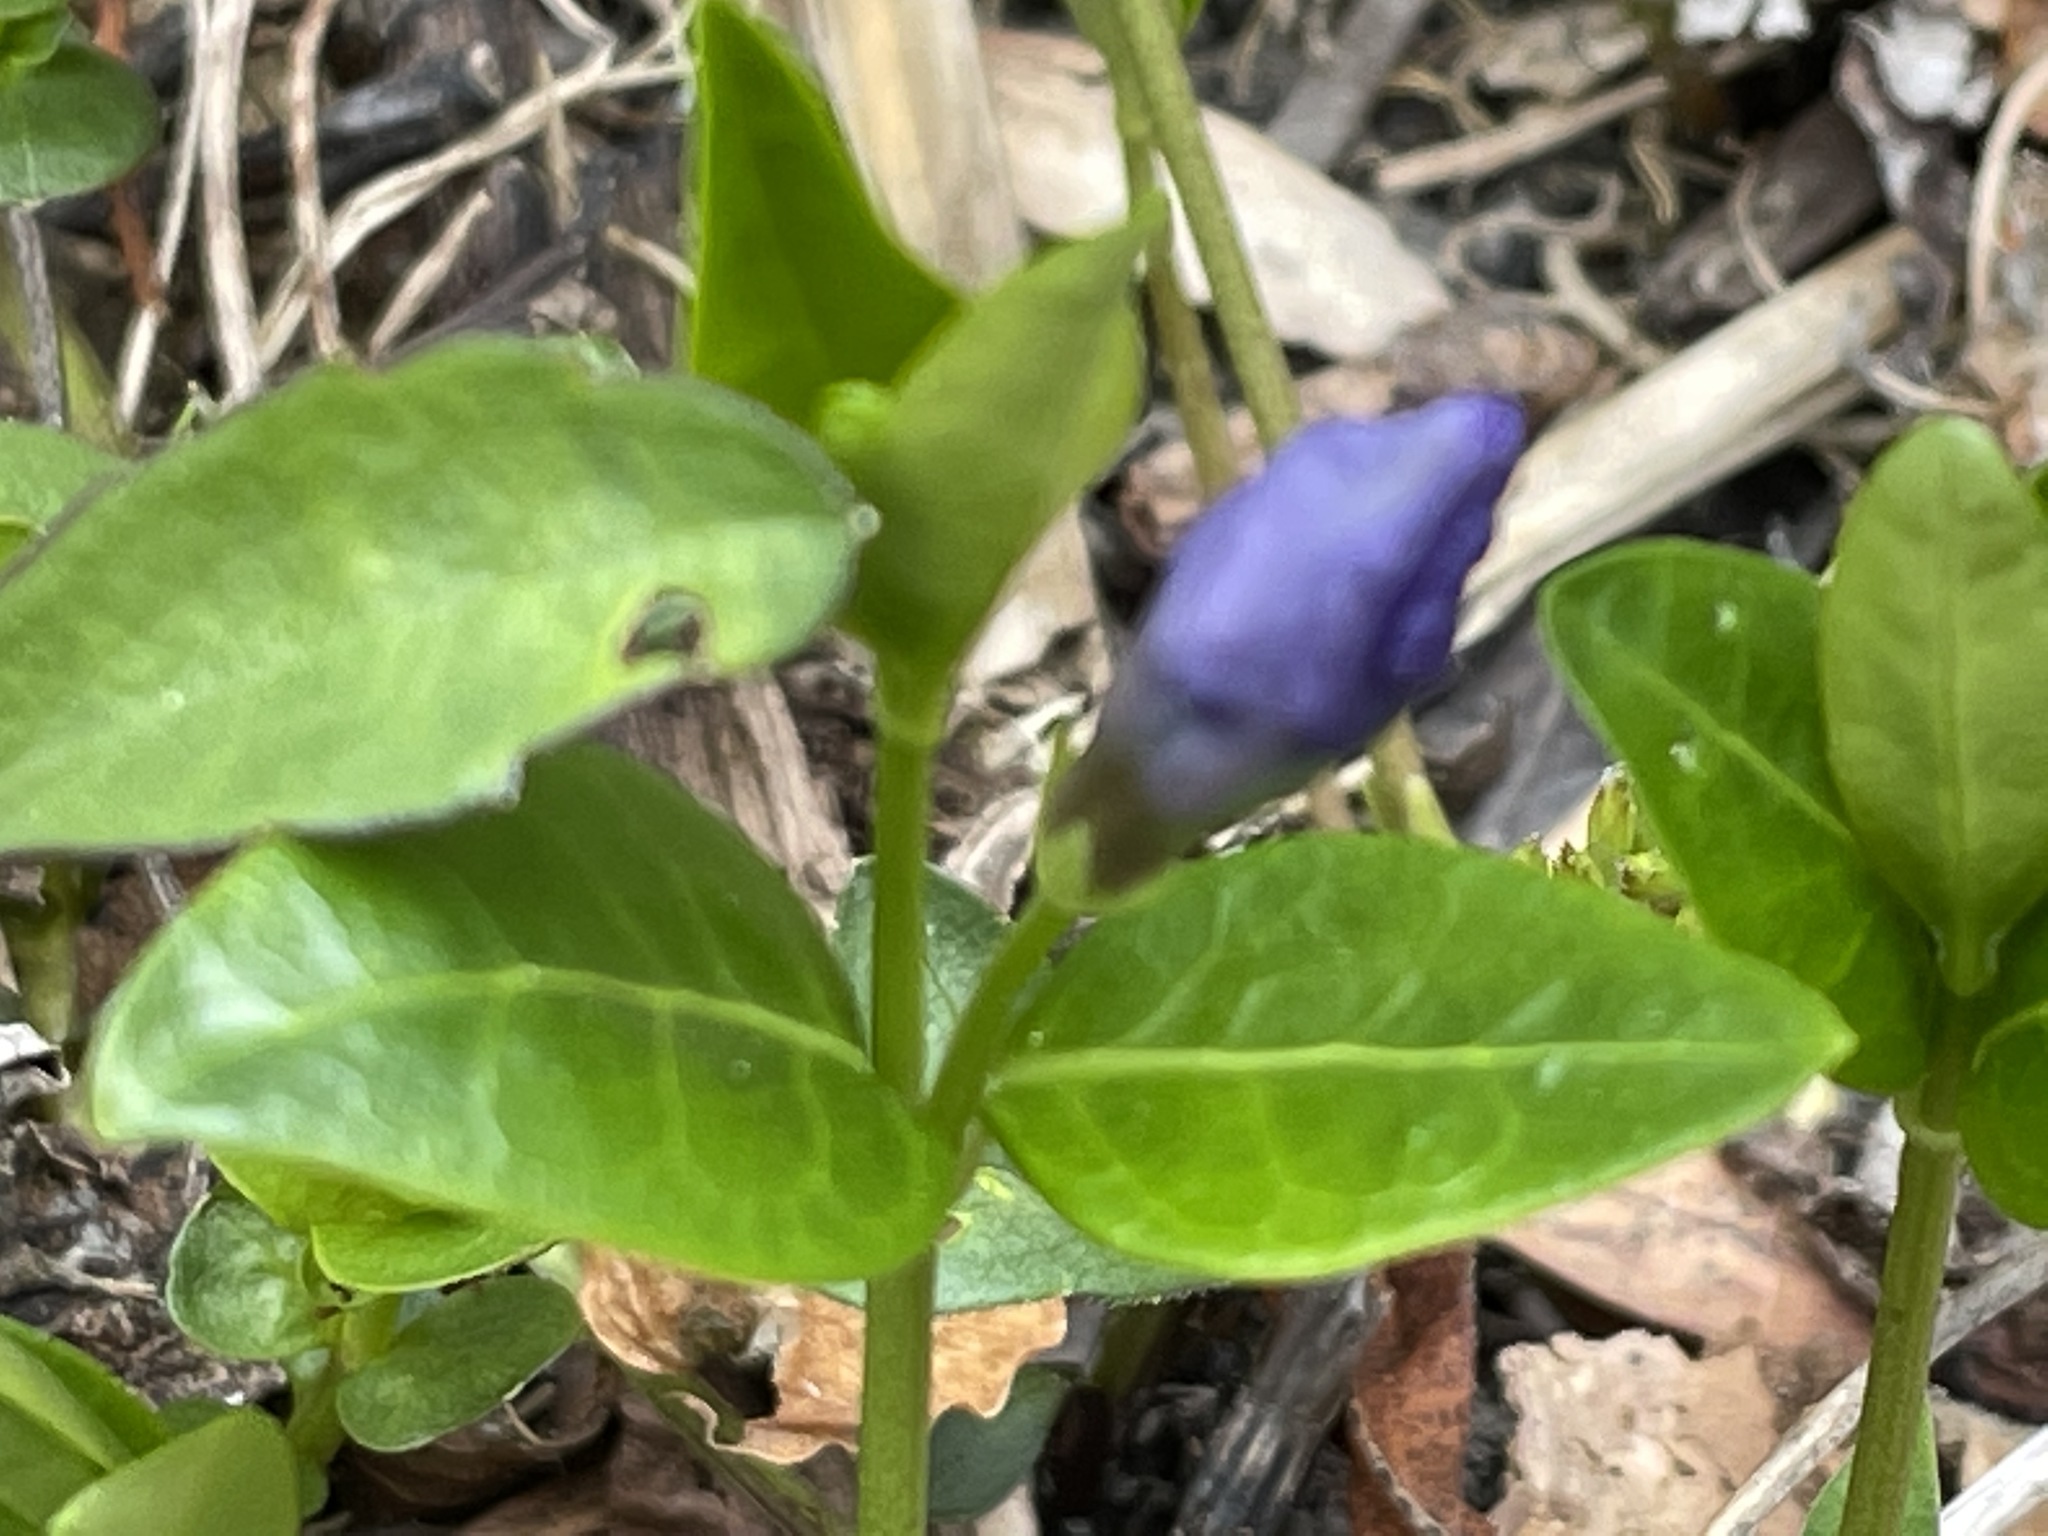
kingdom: Plantae
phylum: Tracheophyta
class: Magnoliopsida
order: Gentianales
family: Apocynaceae
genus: Vinca
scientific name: Vinca minor
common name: Lesser periwinkle
